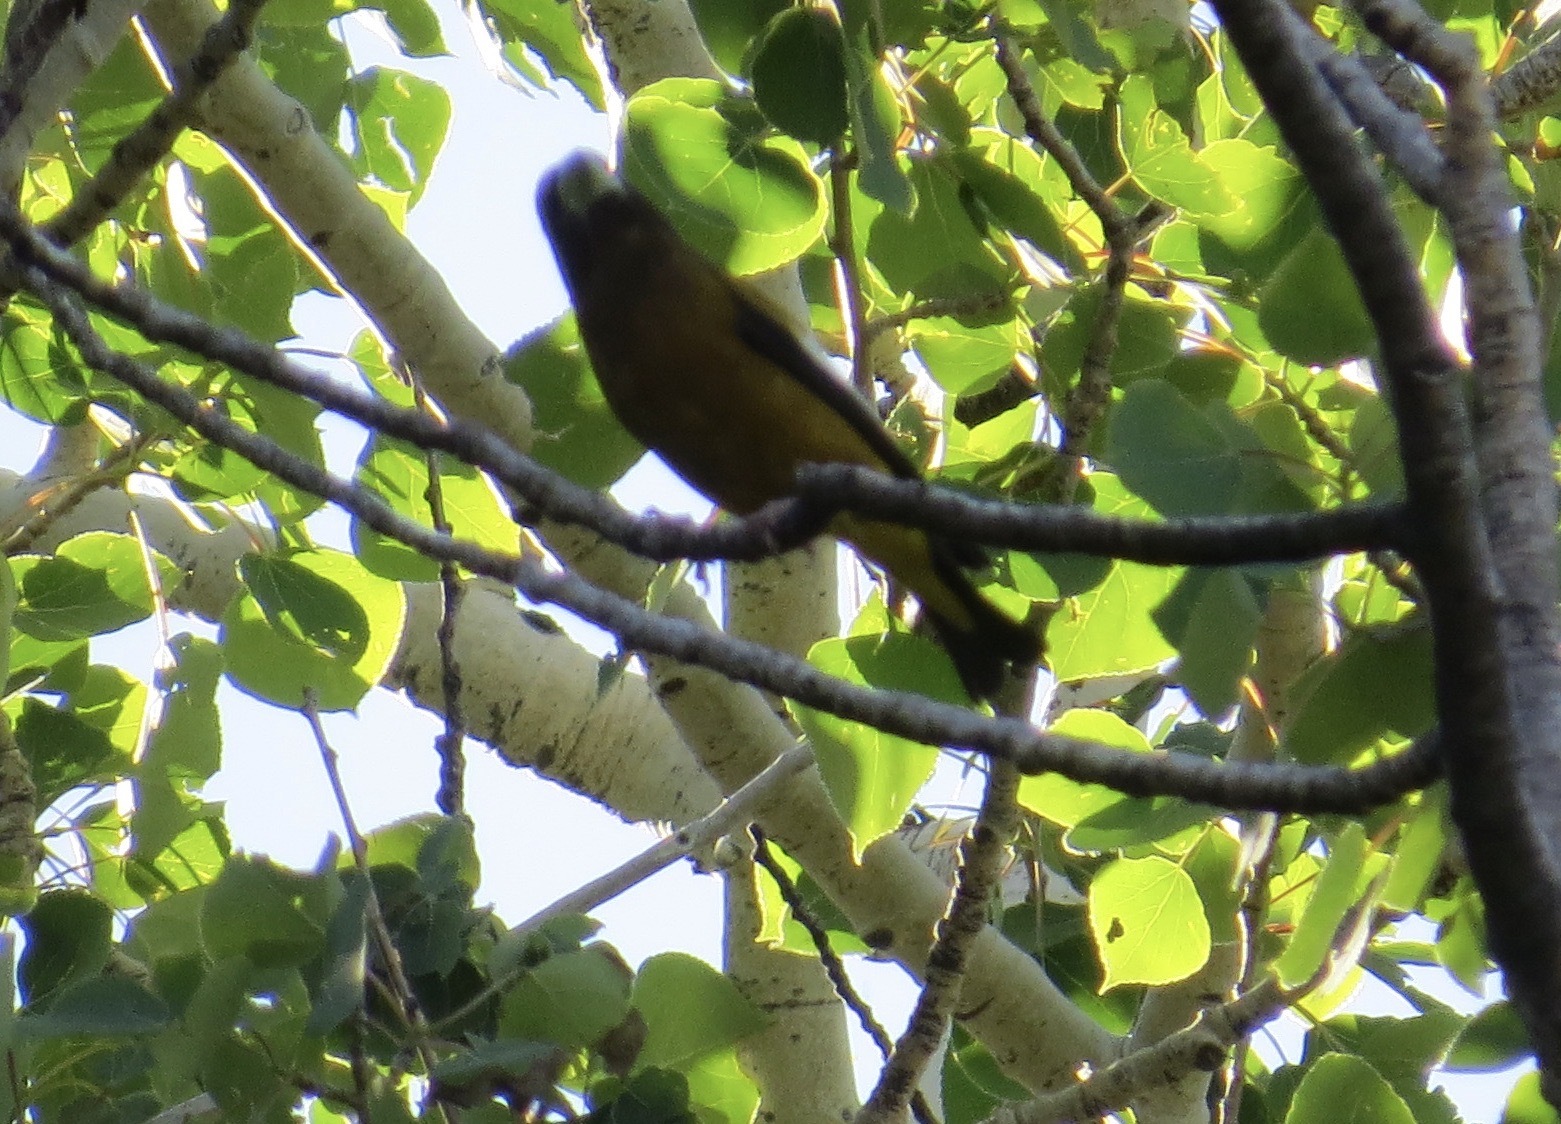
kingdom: Animalia
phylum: Chordata
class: Aves
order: Passeriformes
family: Fringillidae
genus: Hesperiphona
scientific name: Hesperiphona vespertina
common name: Evening grosbeak
